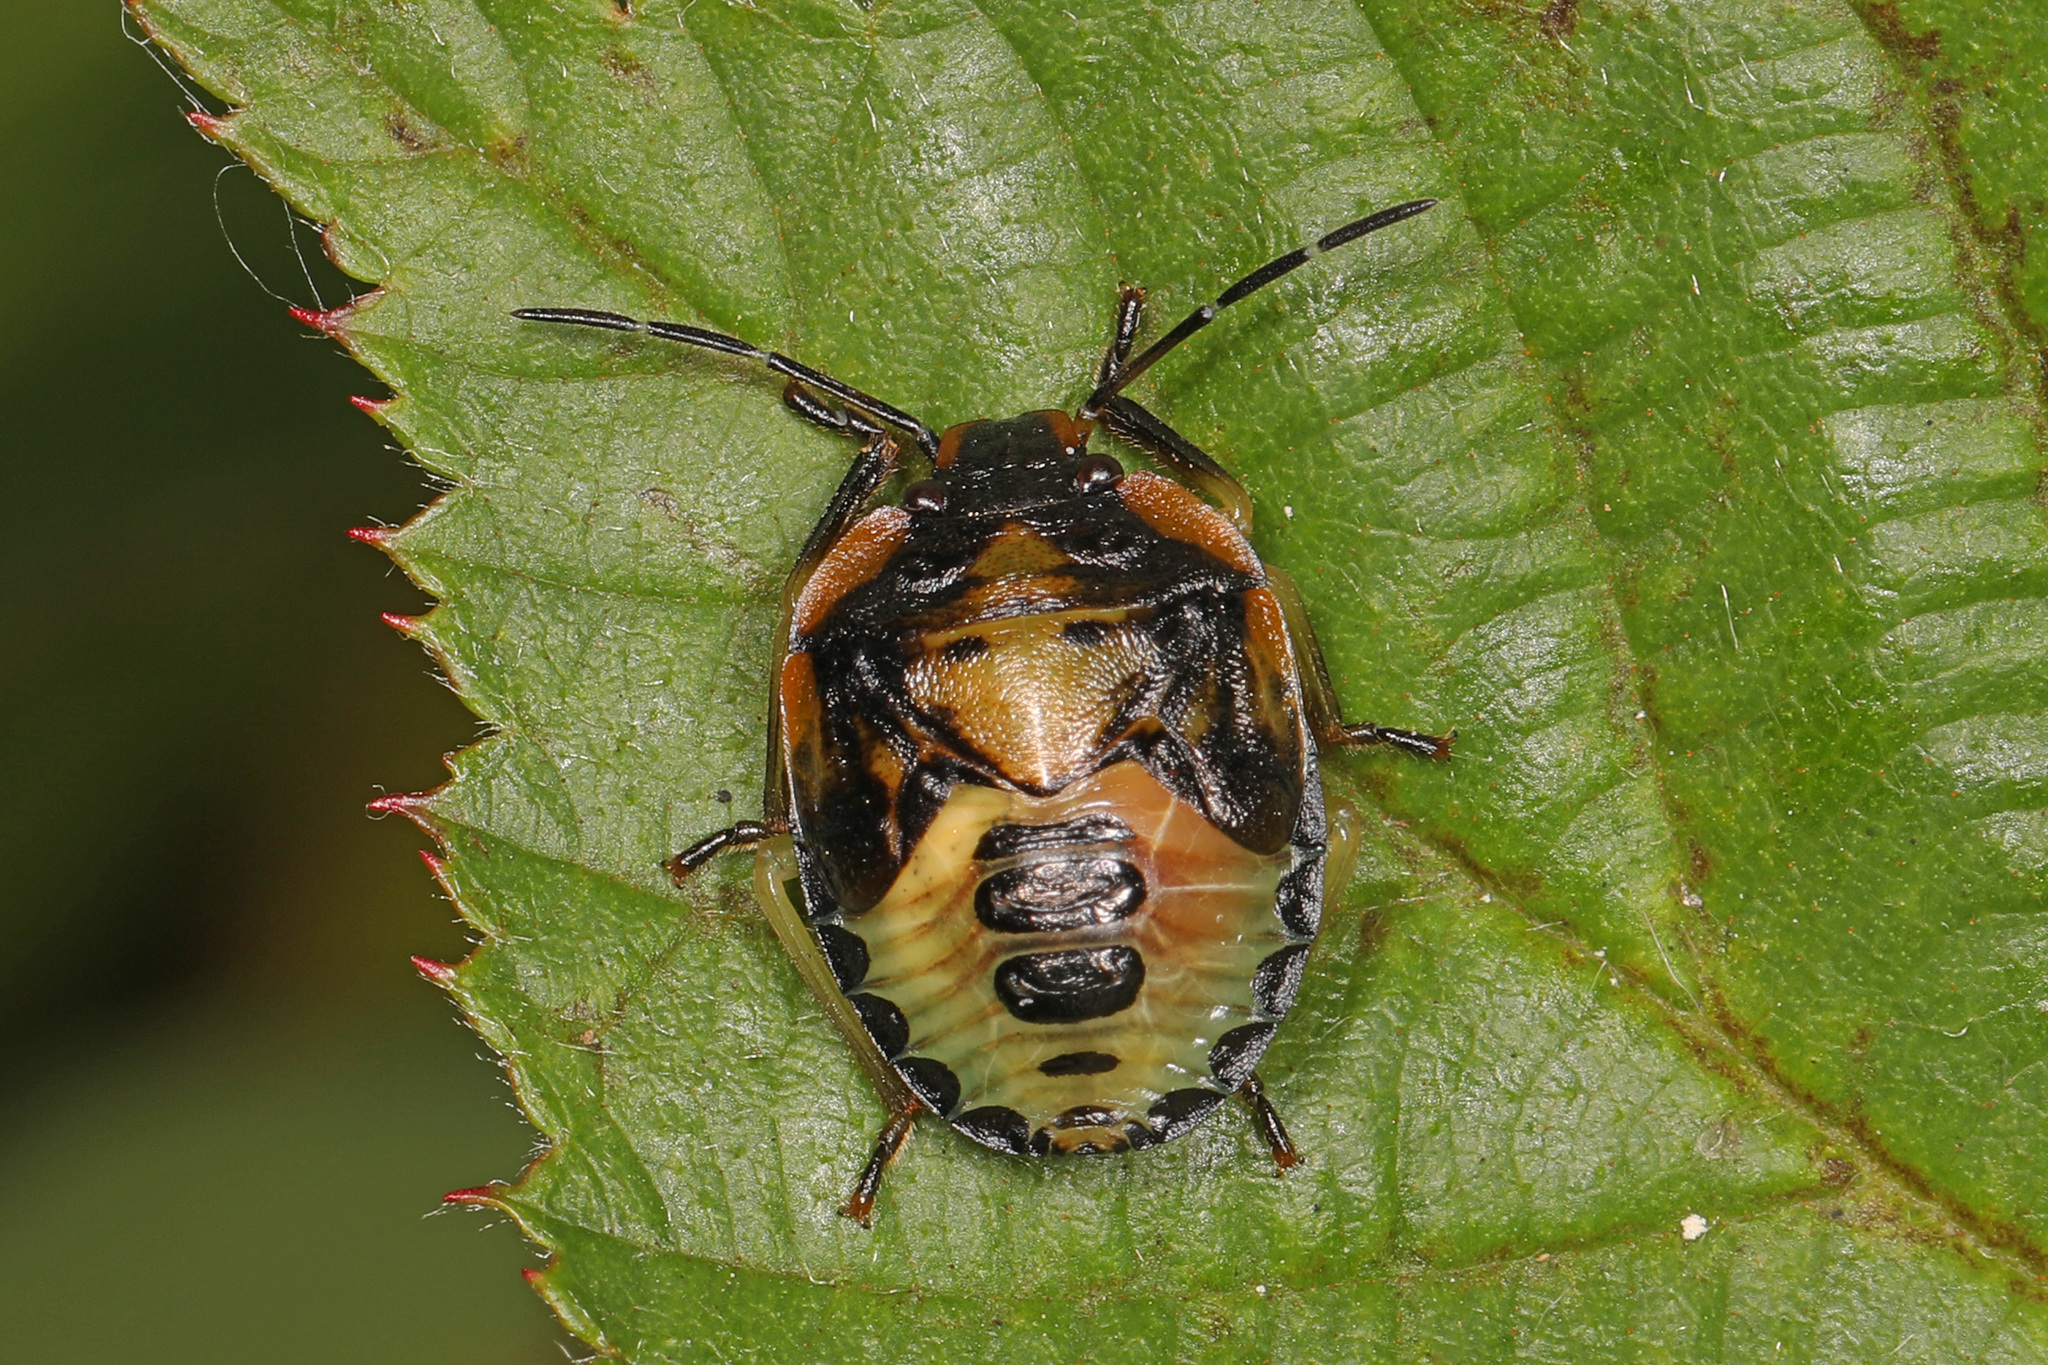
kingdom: Animalia
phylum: Arthropoda
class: Insecta
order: Hemiptera
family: Pentatomidae
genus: Chinavia
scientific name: Chinavia hilaris
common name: Green stink bug
